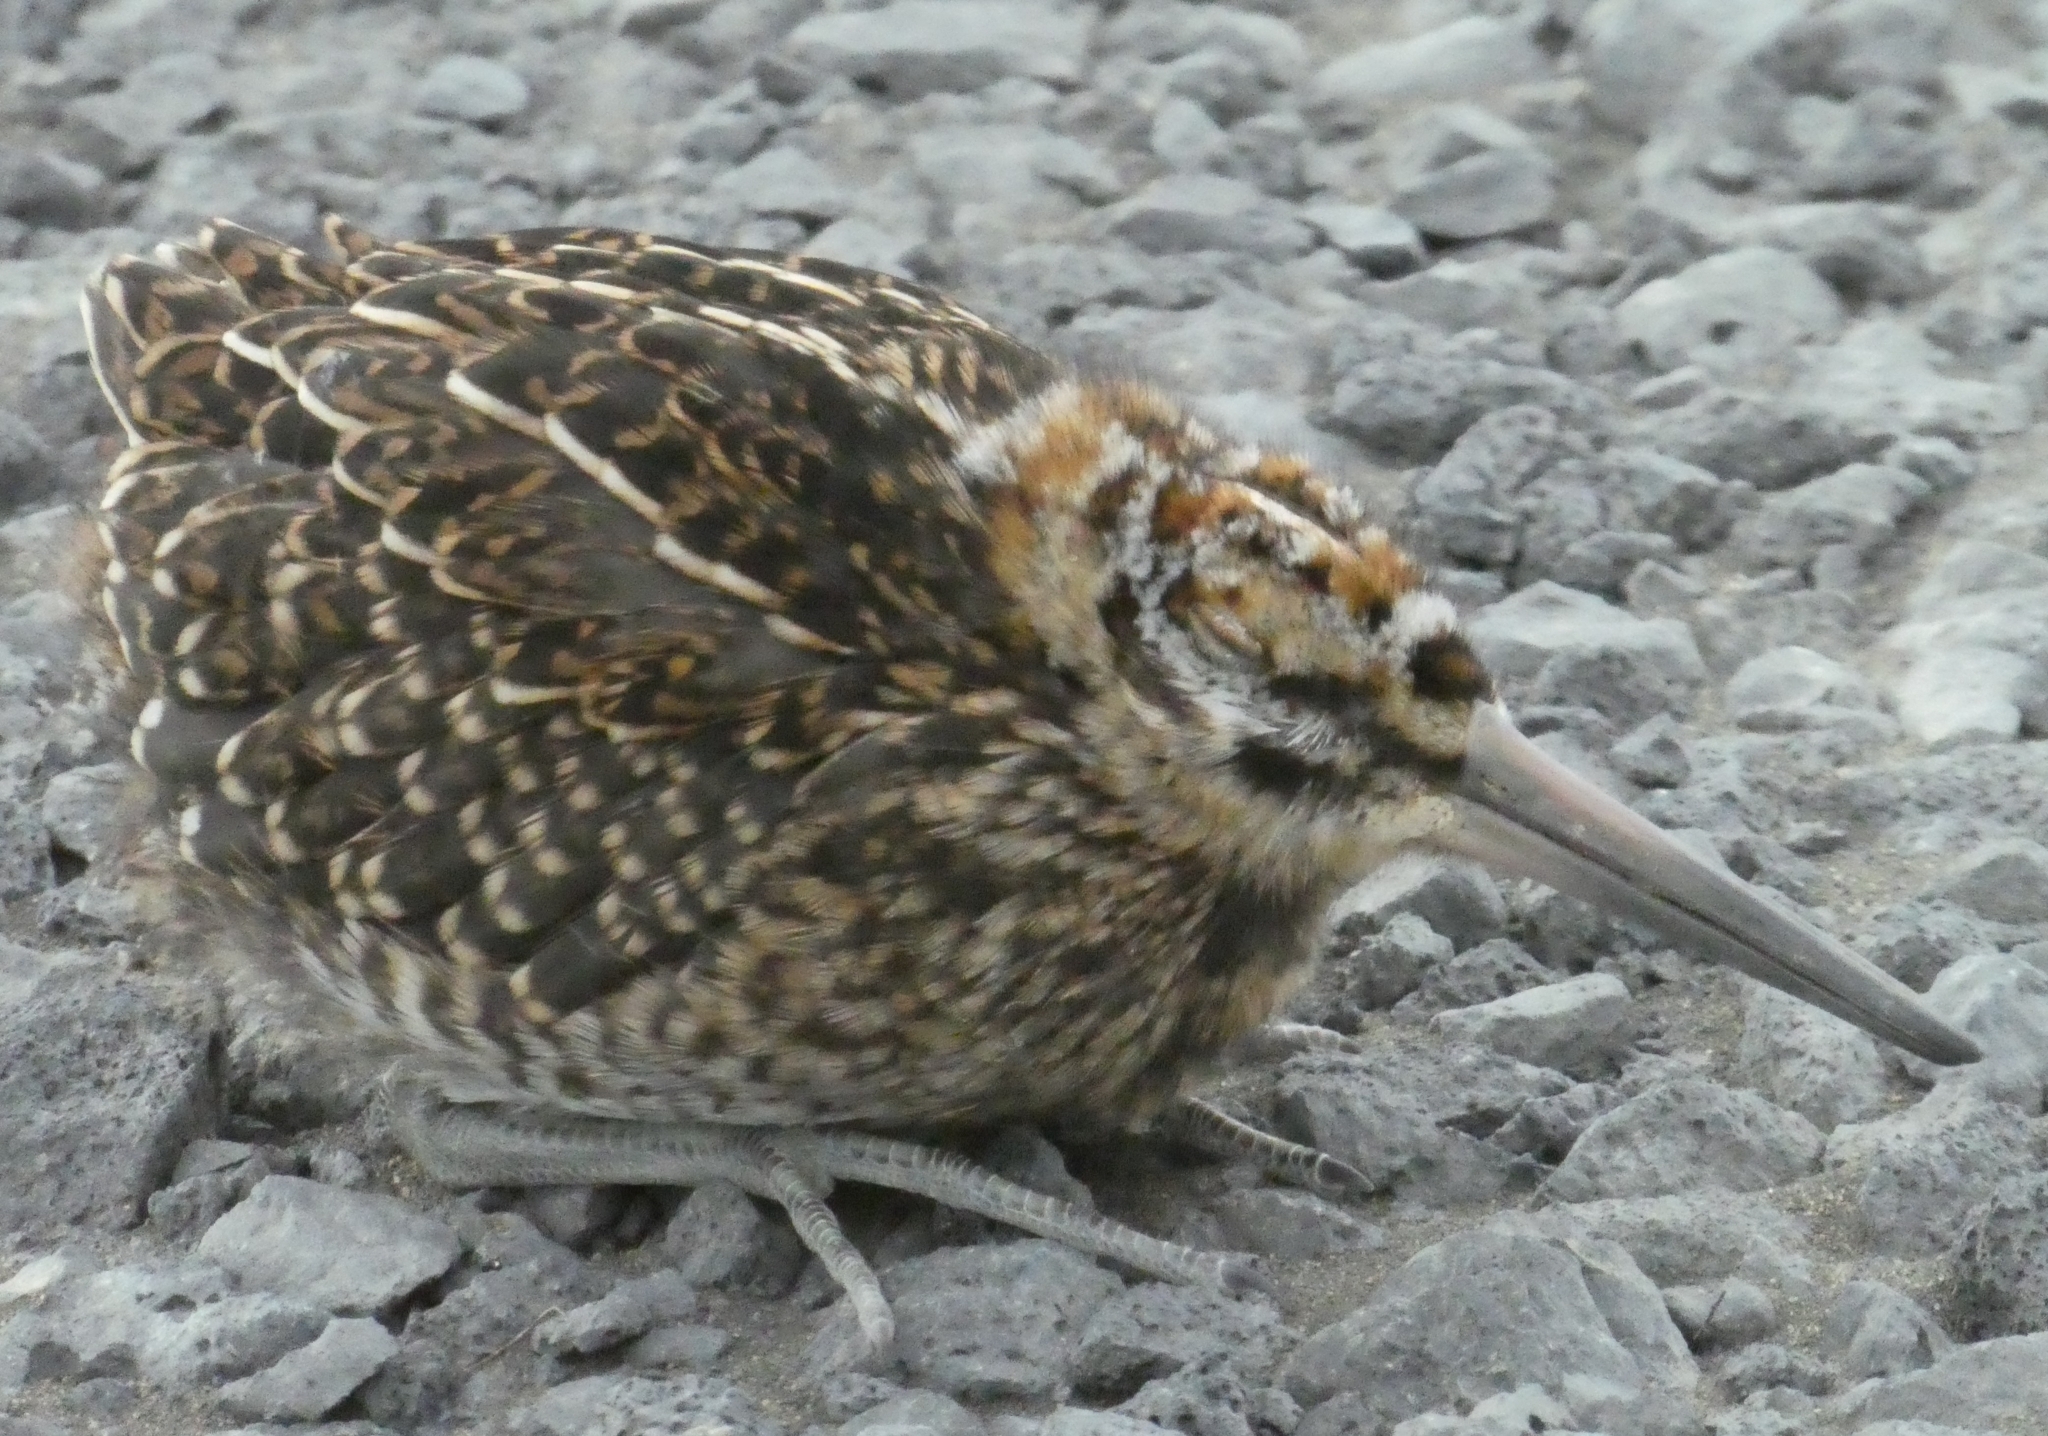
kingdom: Animalia
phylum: Chordata
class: Aves
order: Charadriiformes
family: Scolopacidae
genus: Gallinago
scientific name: Gallinago gallinago
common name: Common snipe
